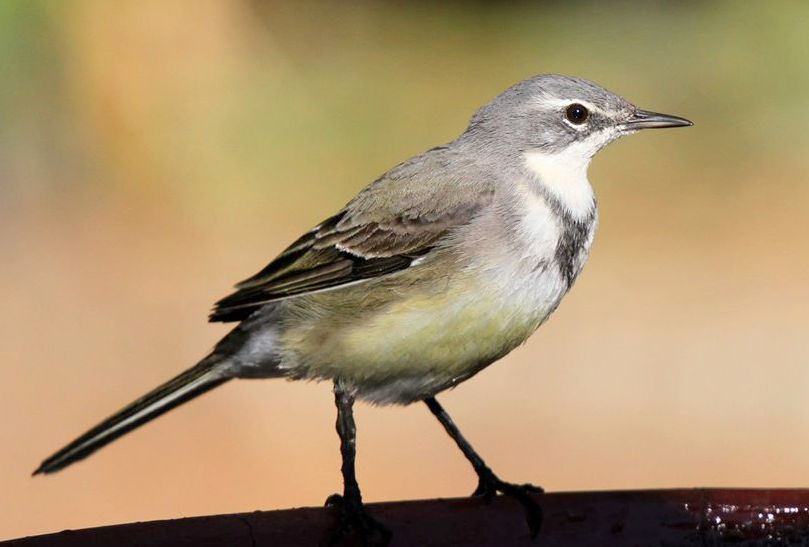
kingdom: Animalia
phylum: Chordata
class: Aves
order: Passeriformes
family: Motacillidae
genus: Motacilla
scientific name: Motacilla capensis
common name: Cape wagtail
